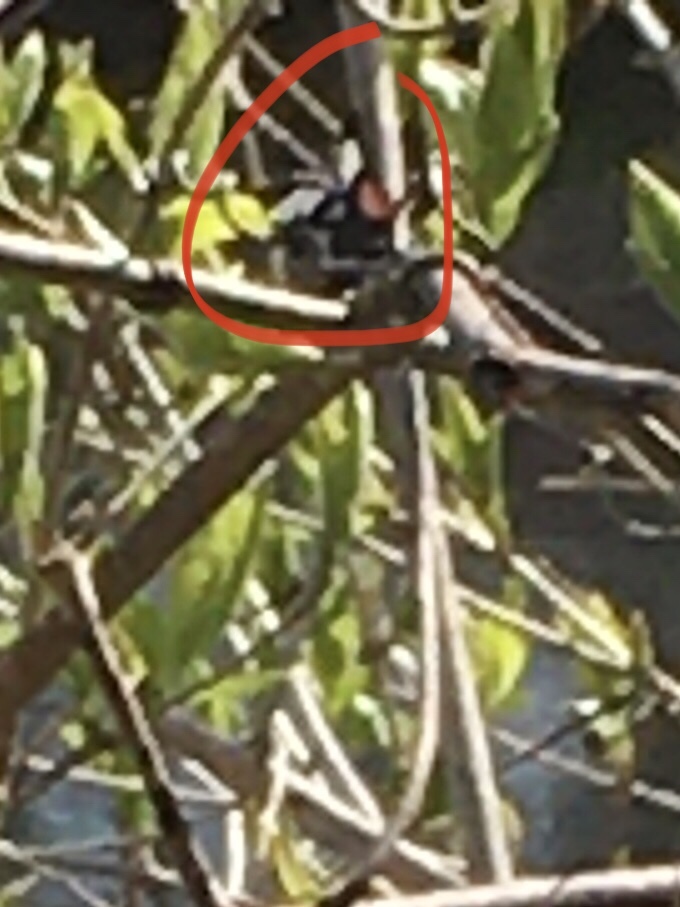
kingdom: Animalia
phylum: Arthropoda
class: Insecta
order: Lepidoptera
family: Noctuidae
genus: Psychomorpha
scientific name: Psychomorpha epimenis
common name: Grapevine epimenis moth
